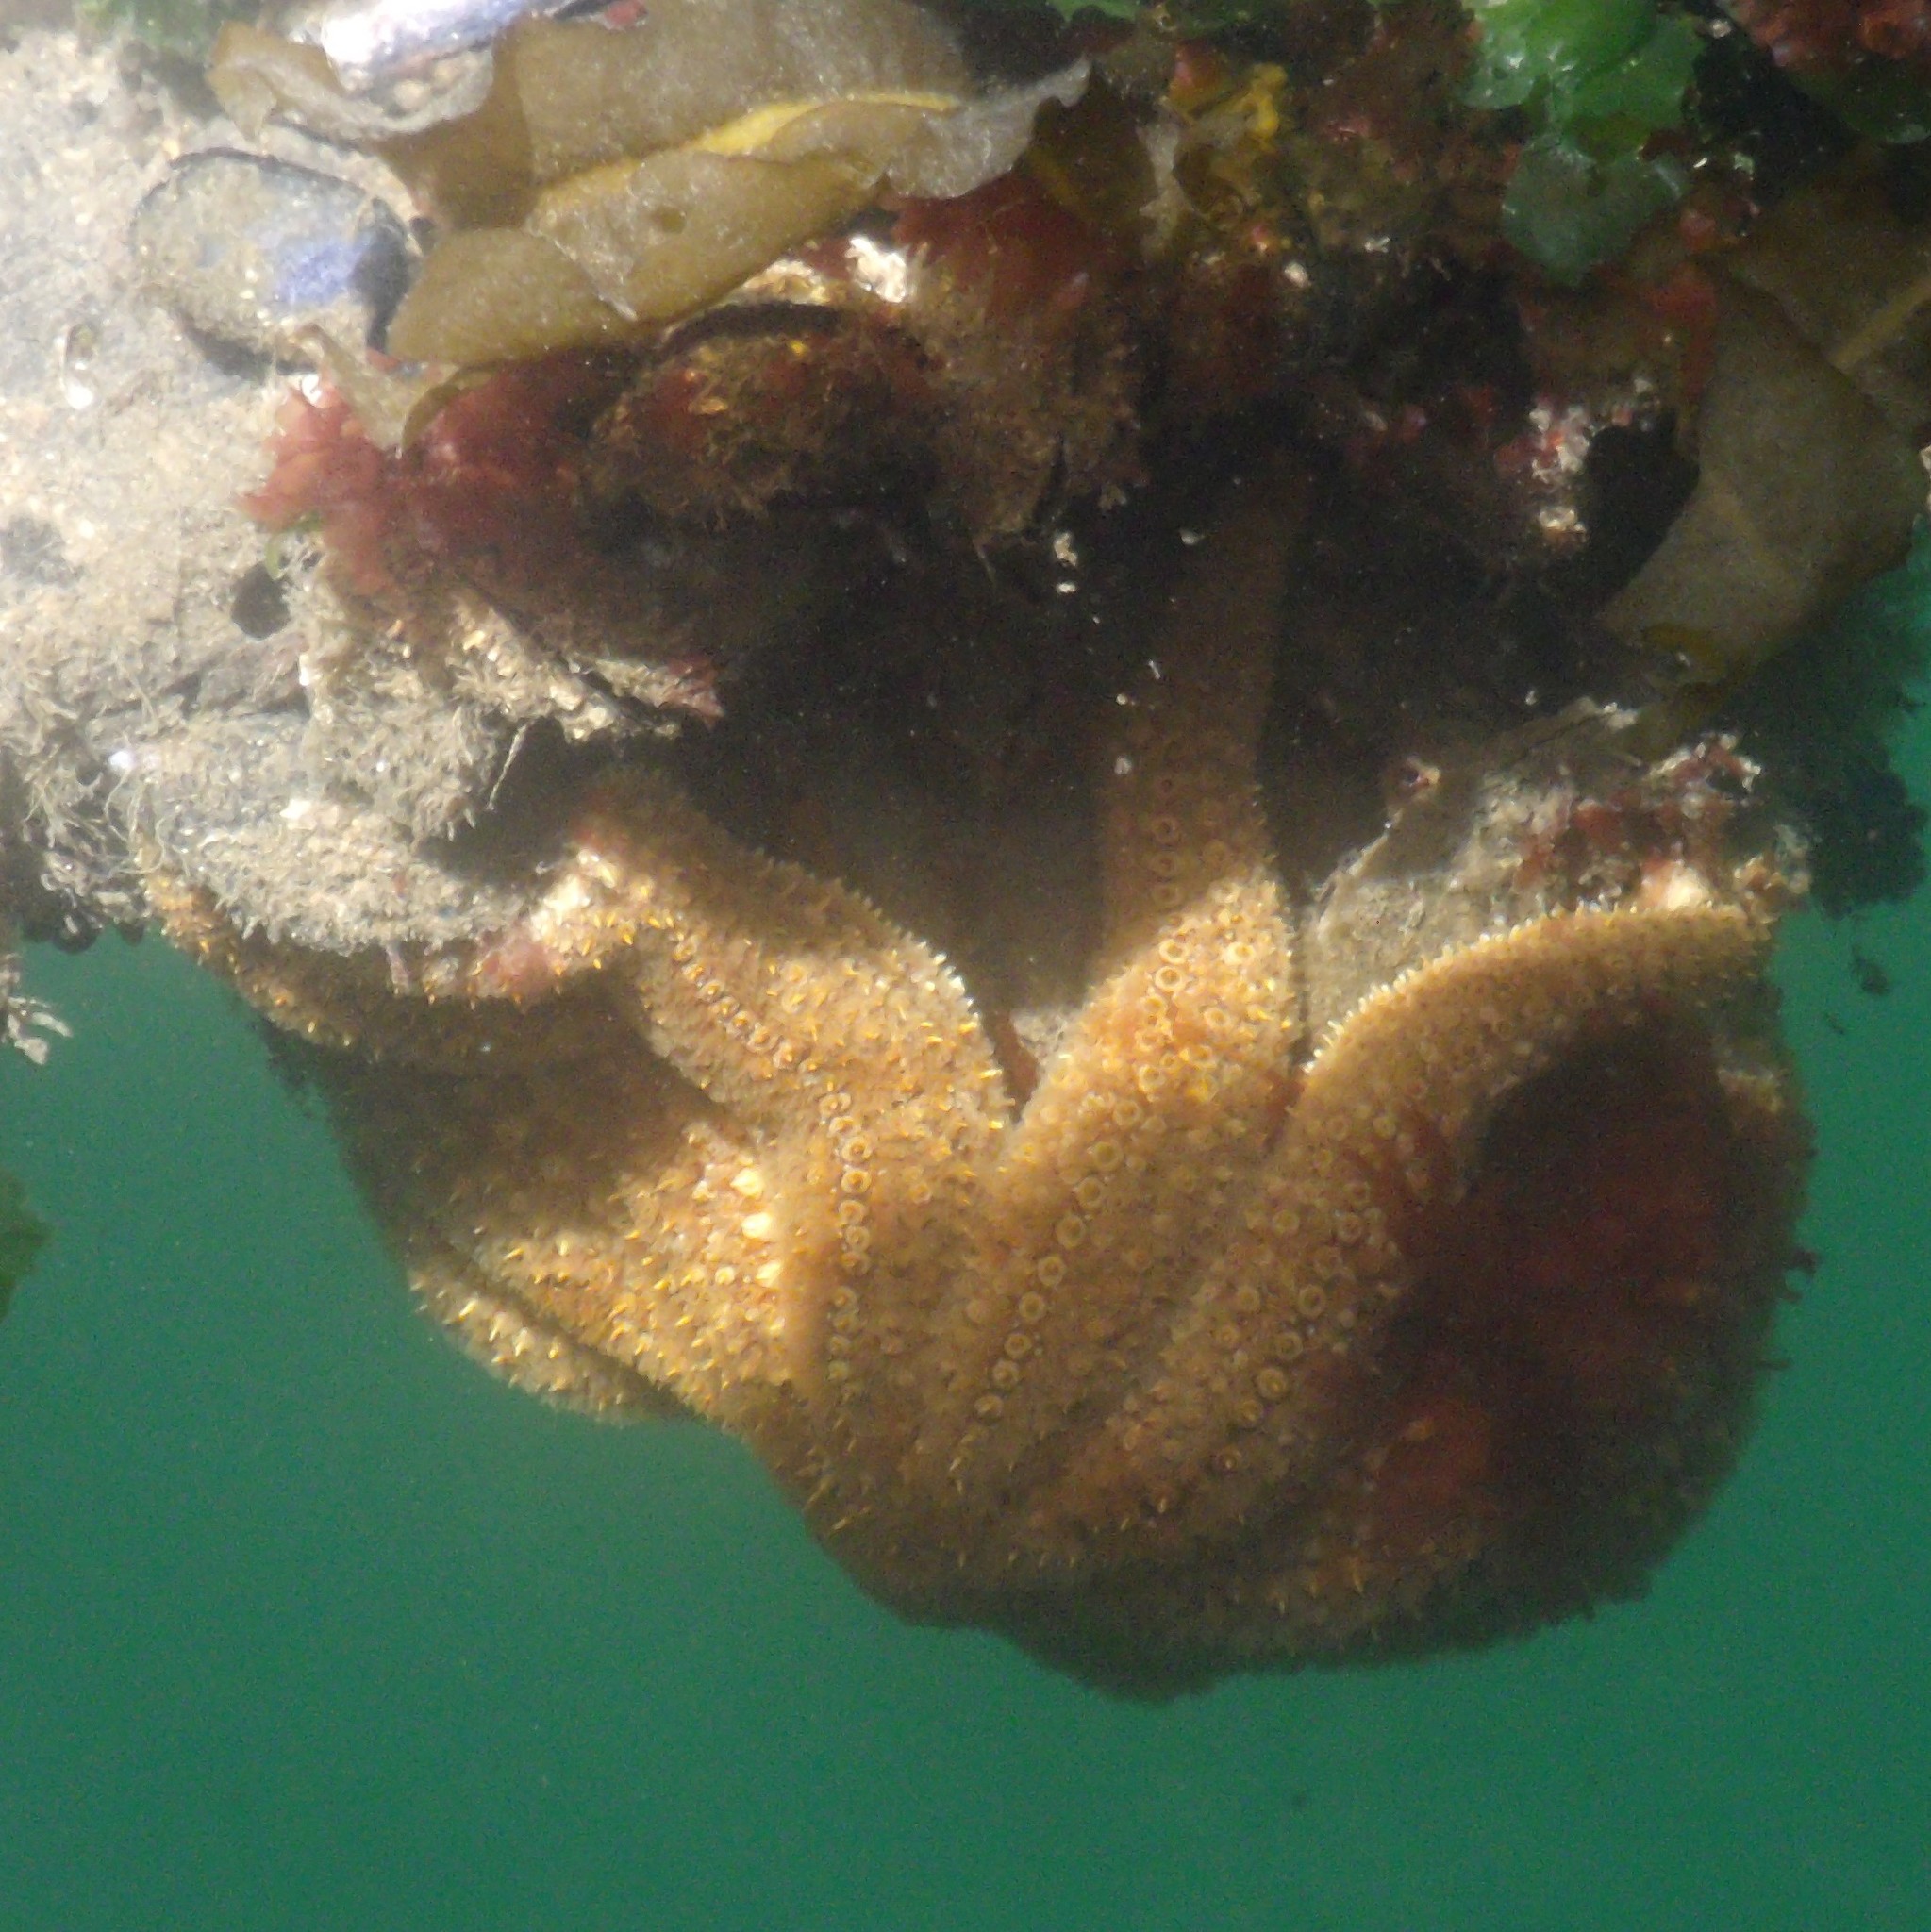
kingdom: Animalia
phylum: Echinodermata
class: Asteroidea
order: Forcipulatida
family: Asteriidae
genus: Coscinasterias
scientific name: Coscinasterias muricata
